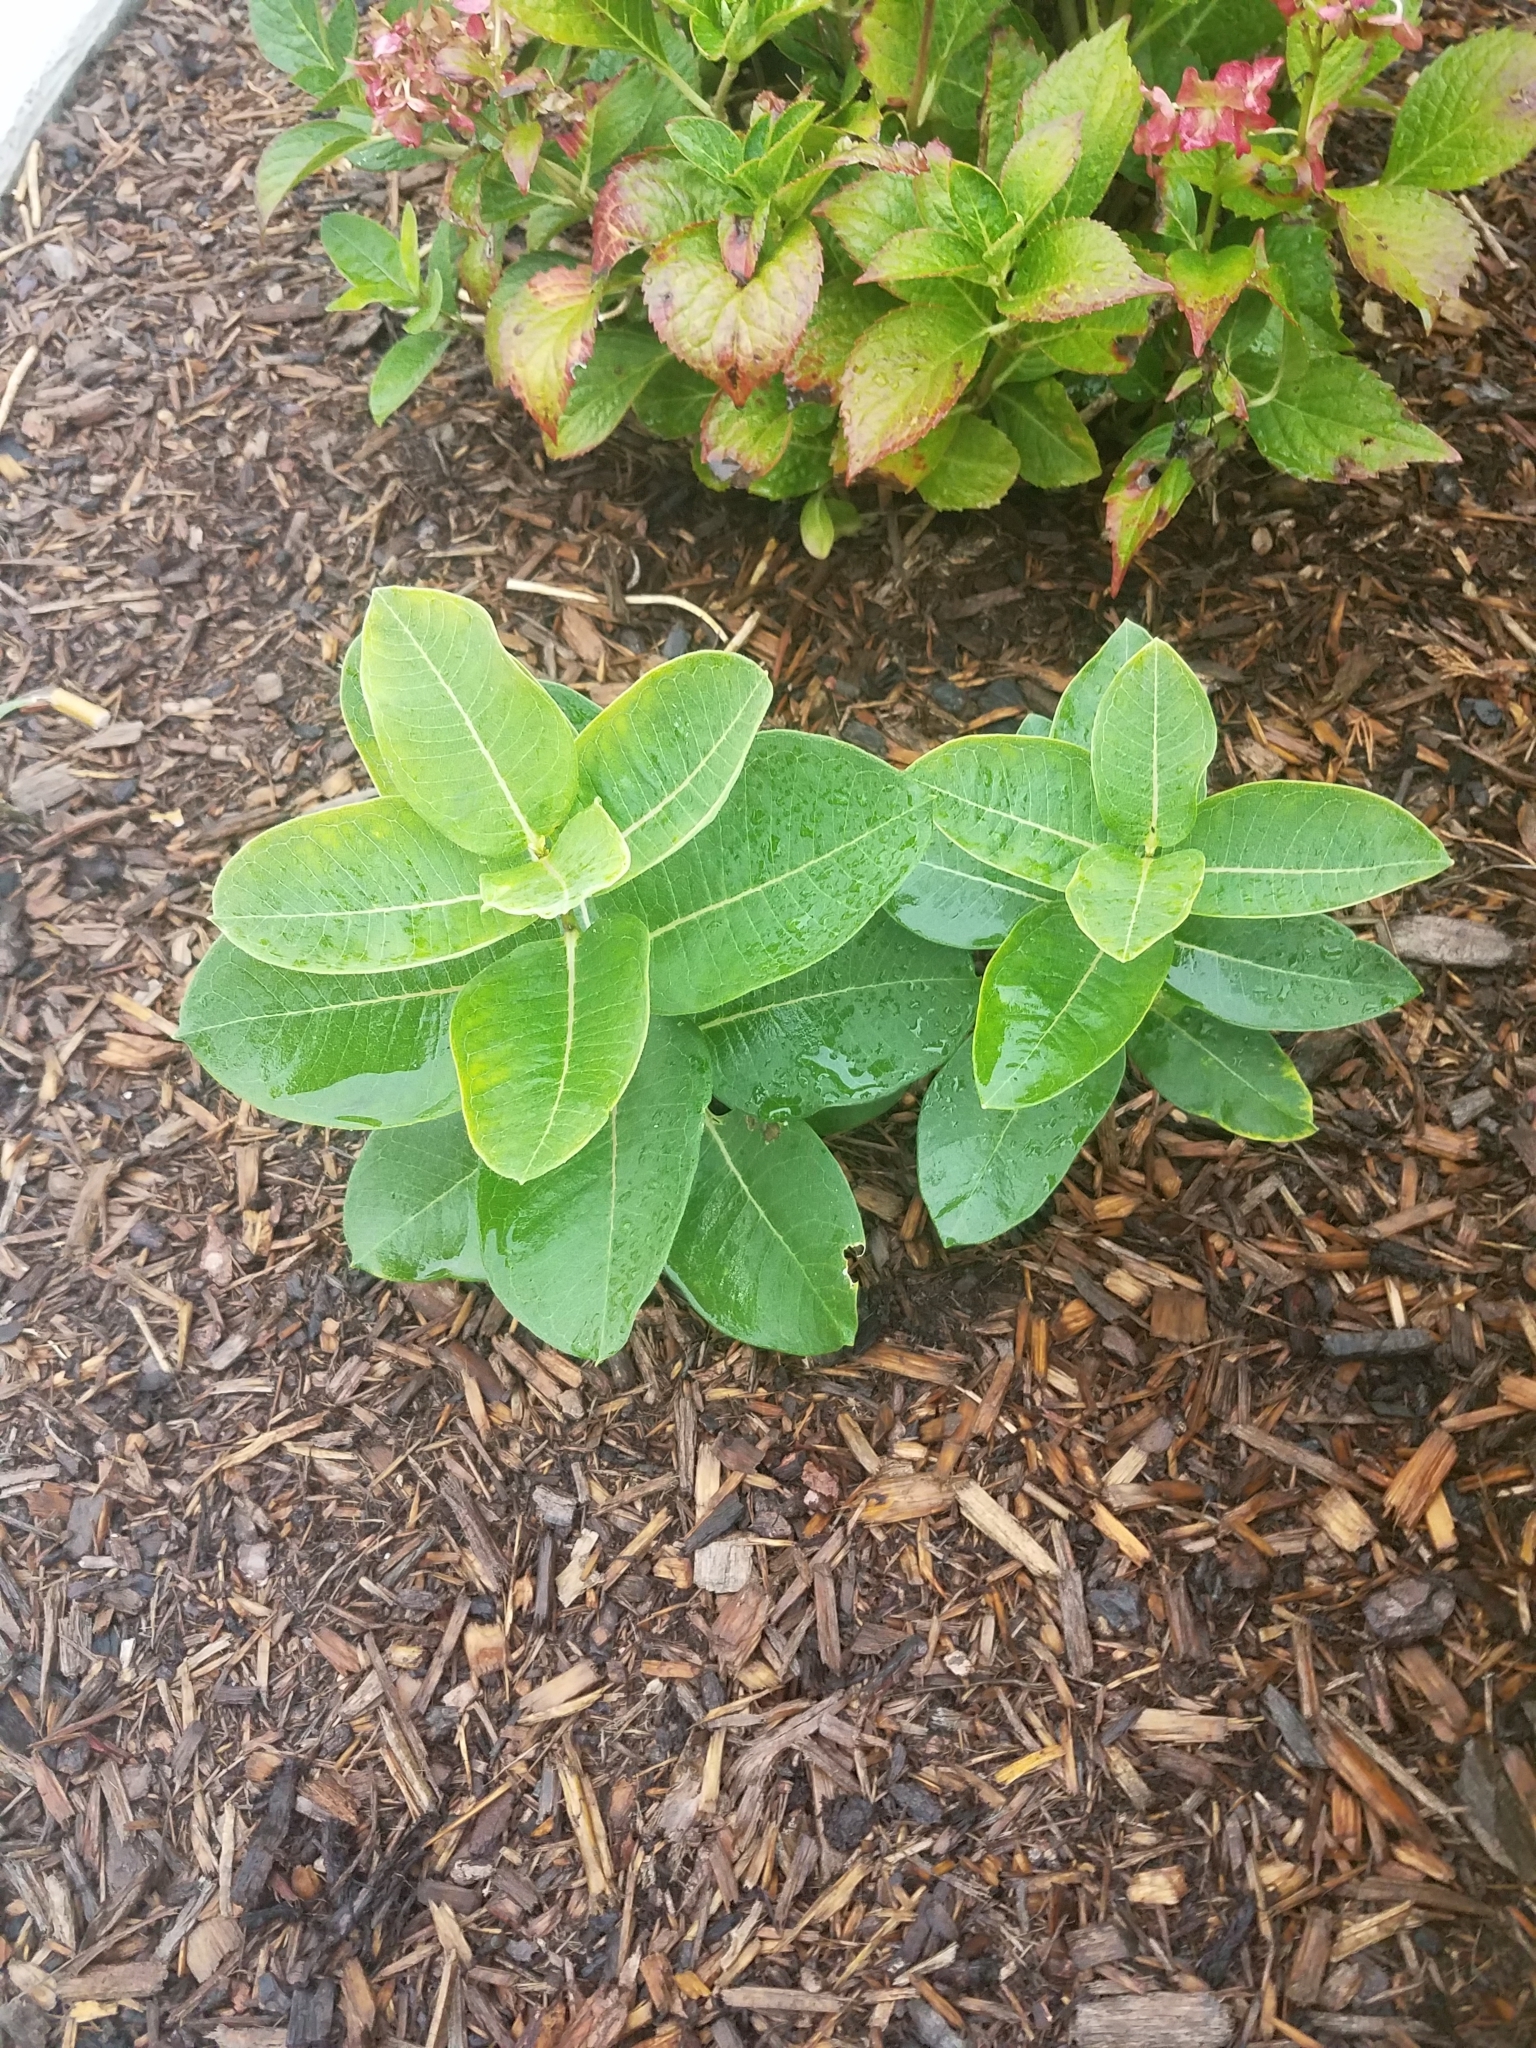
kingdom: Plantae
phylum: Tracheophyta
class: Magnoliopsida
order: Gentianales
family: Apocynaceae
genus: Asclepias
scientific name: Asclepias syriaca
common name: Common milkweed
